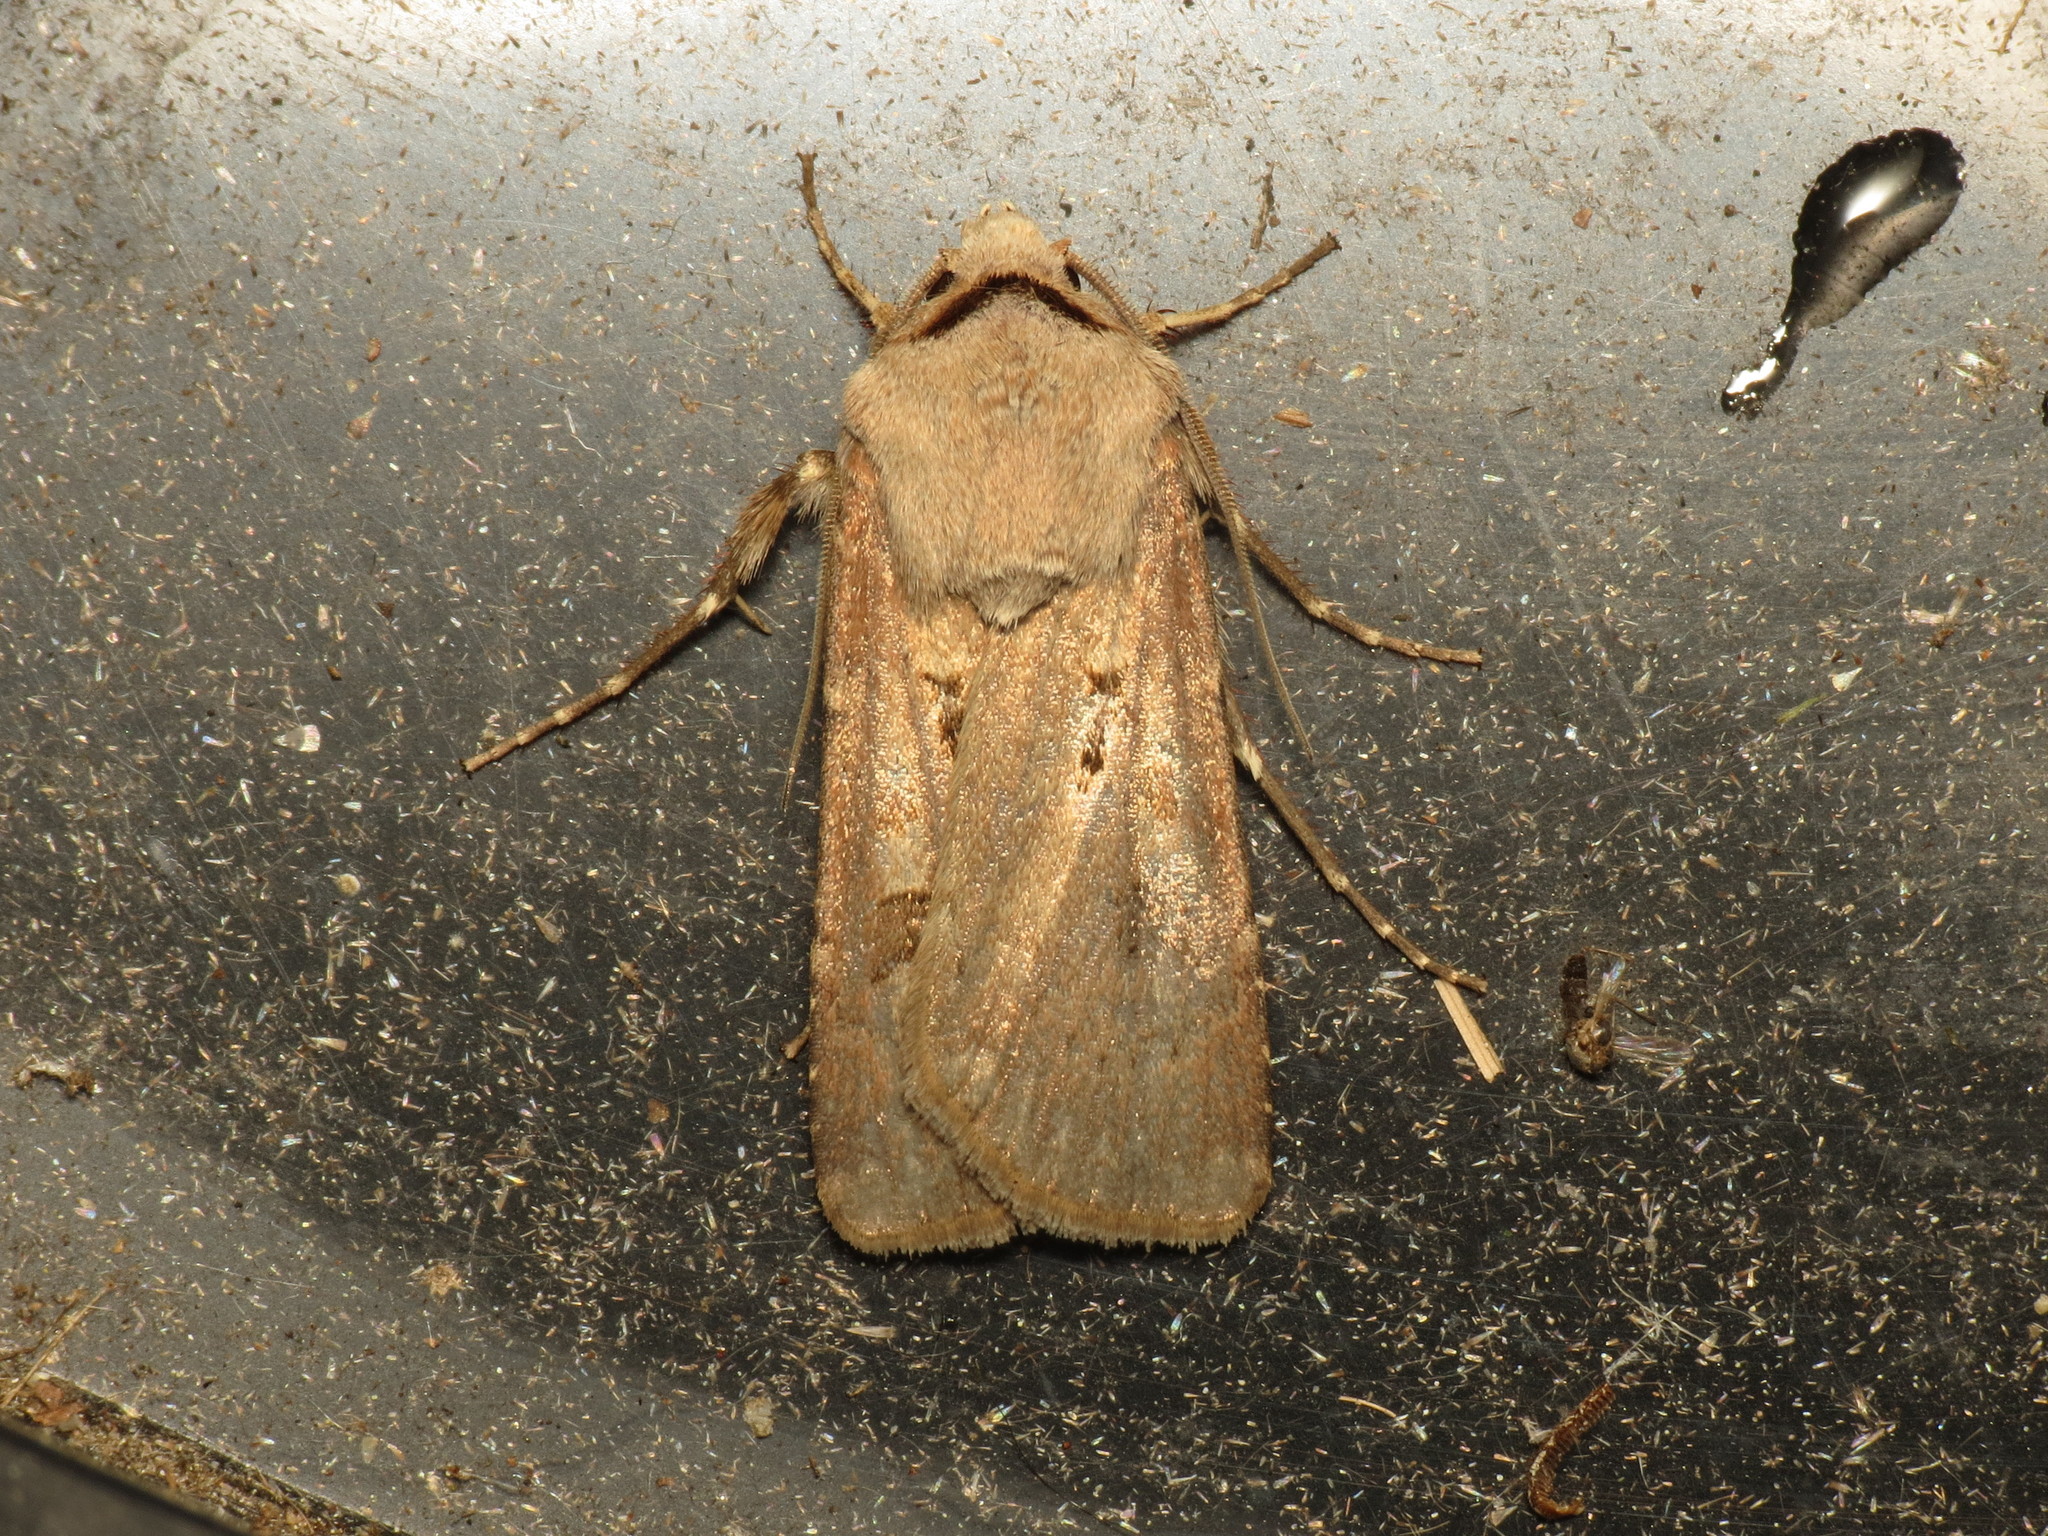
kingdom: Animalia
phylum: Arthropoda
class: Insecta
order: Lepidoptera
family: Noctuidae
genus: Agrotis
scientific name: Agrotis exclamationis
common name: Heart and dart
